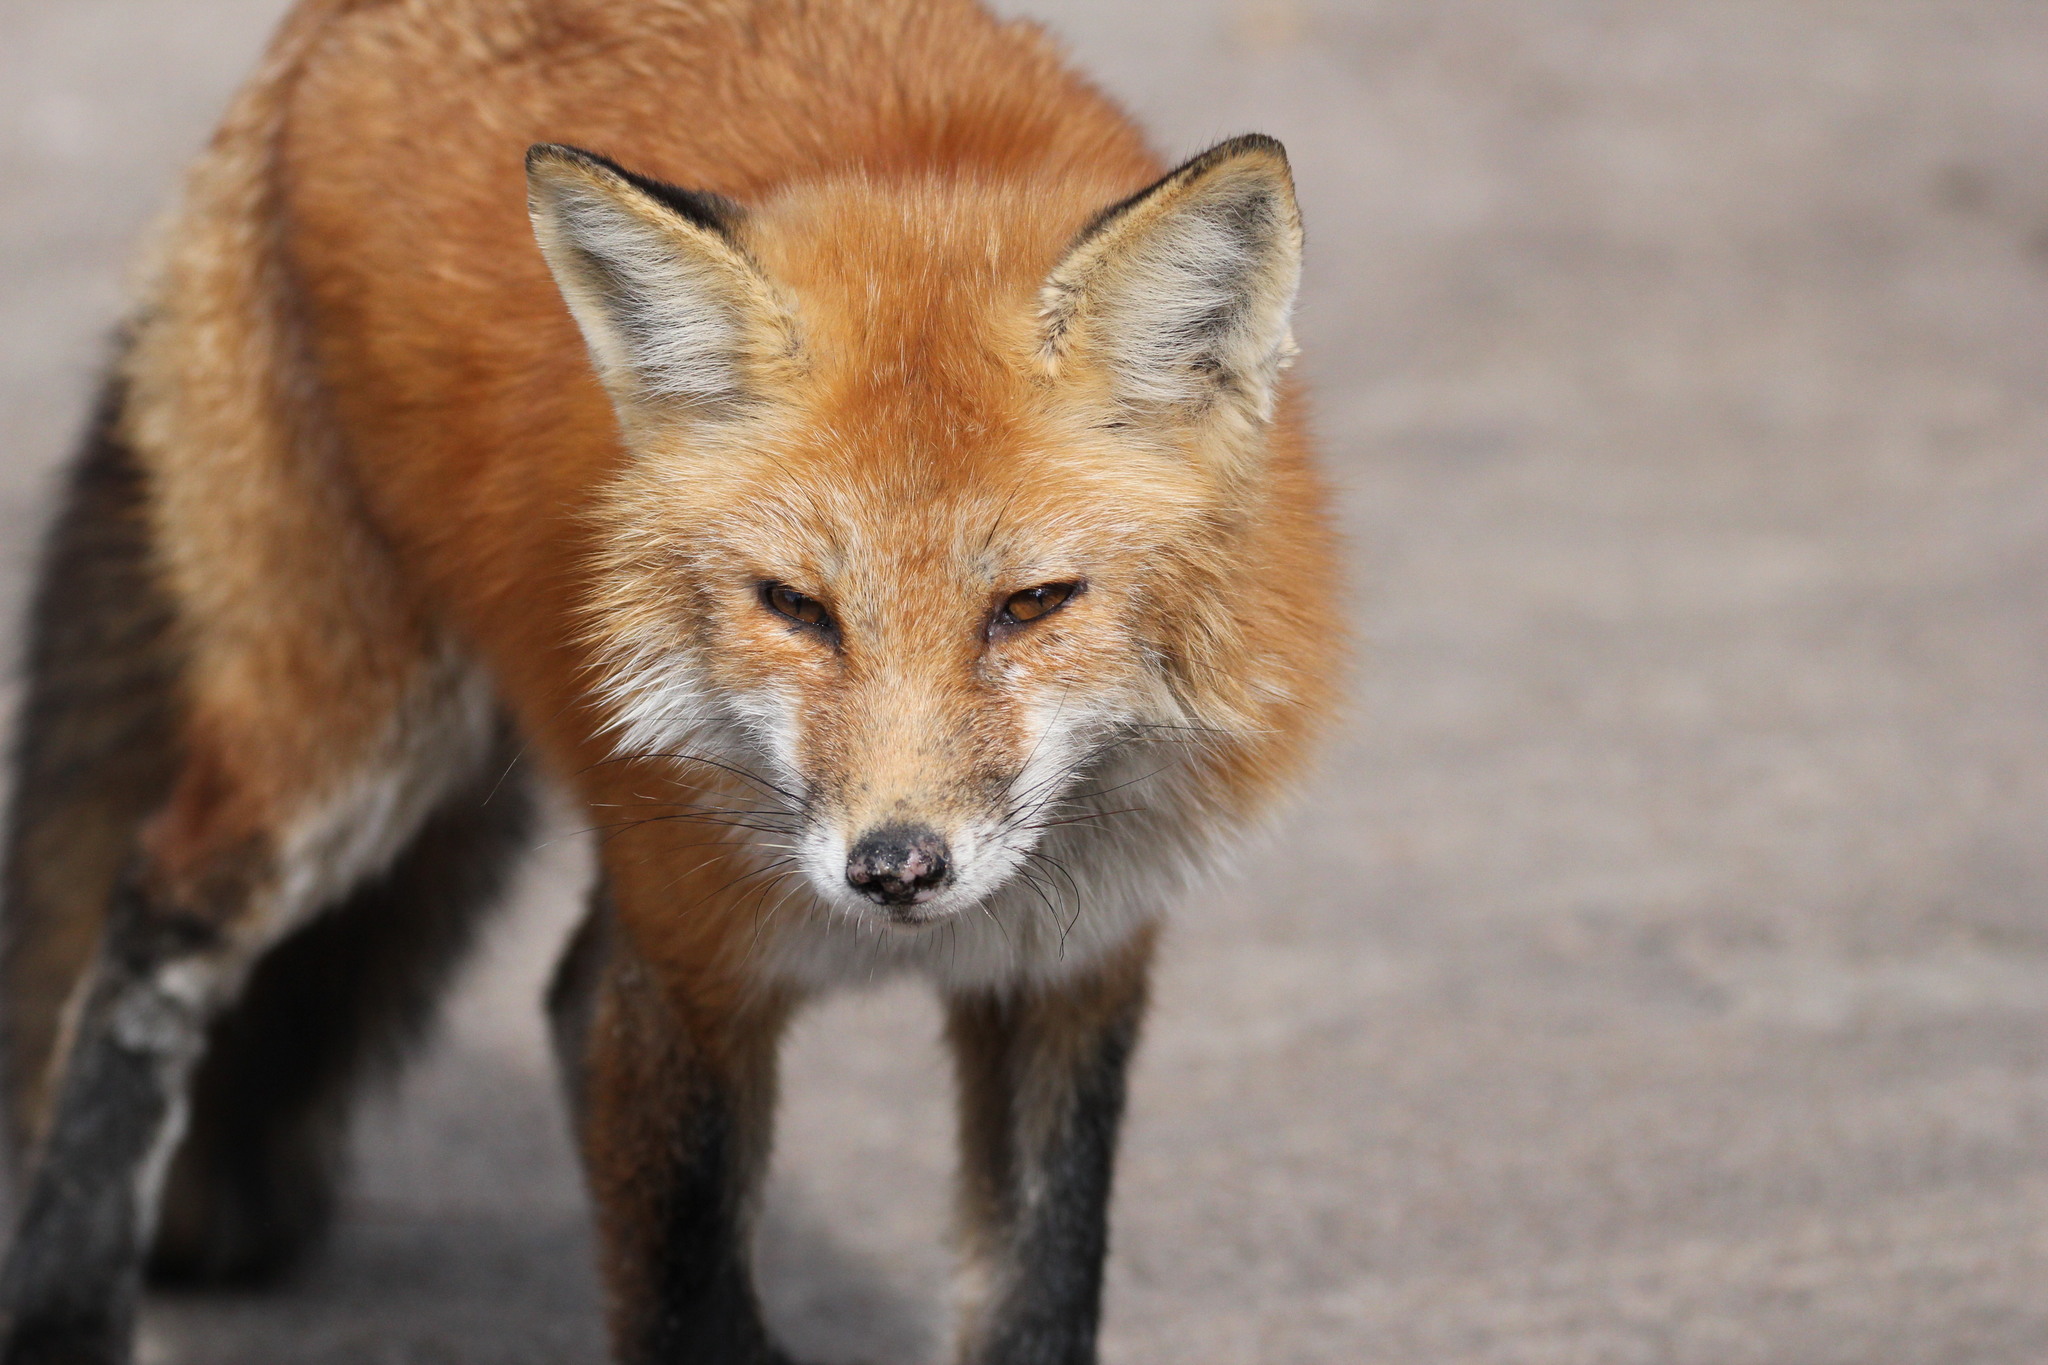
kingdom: Animalia
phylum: Chordata
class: Mammalia
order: Carnivora
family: Canidae
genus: Vulpes
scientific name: Vulpes vulpes
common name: Red fox
